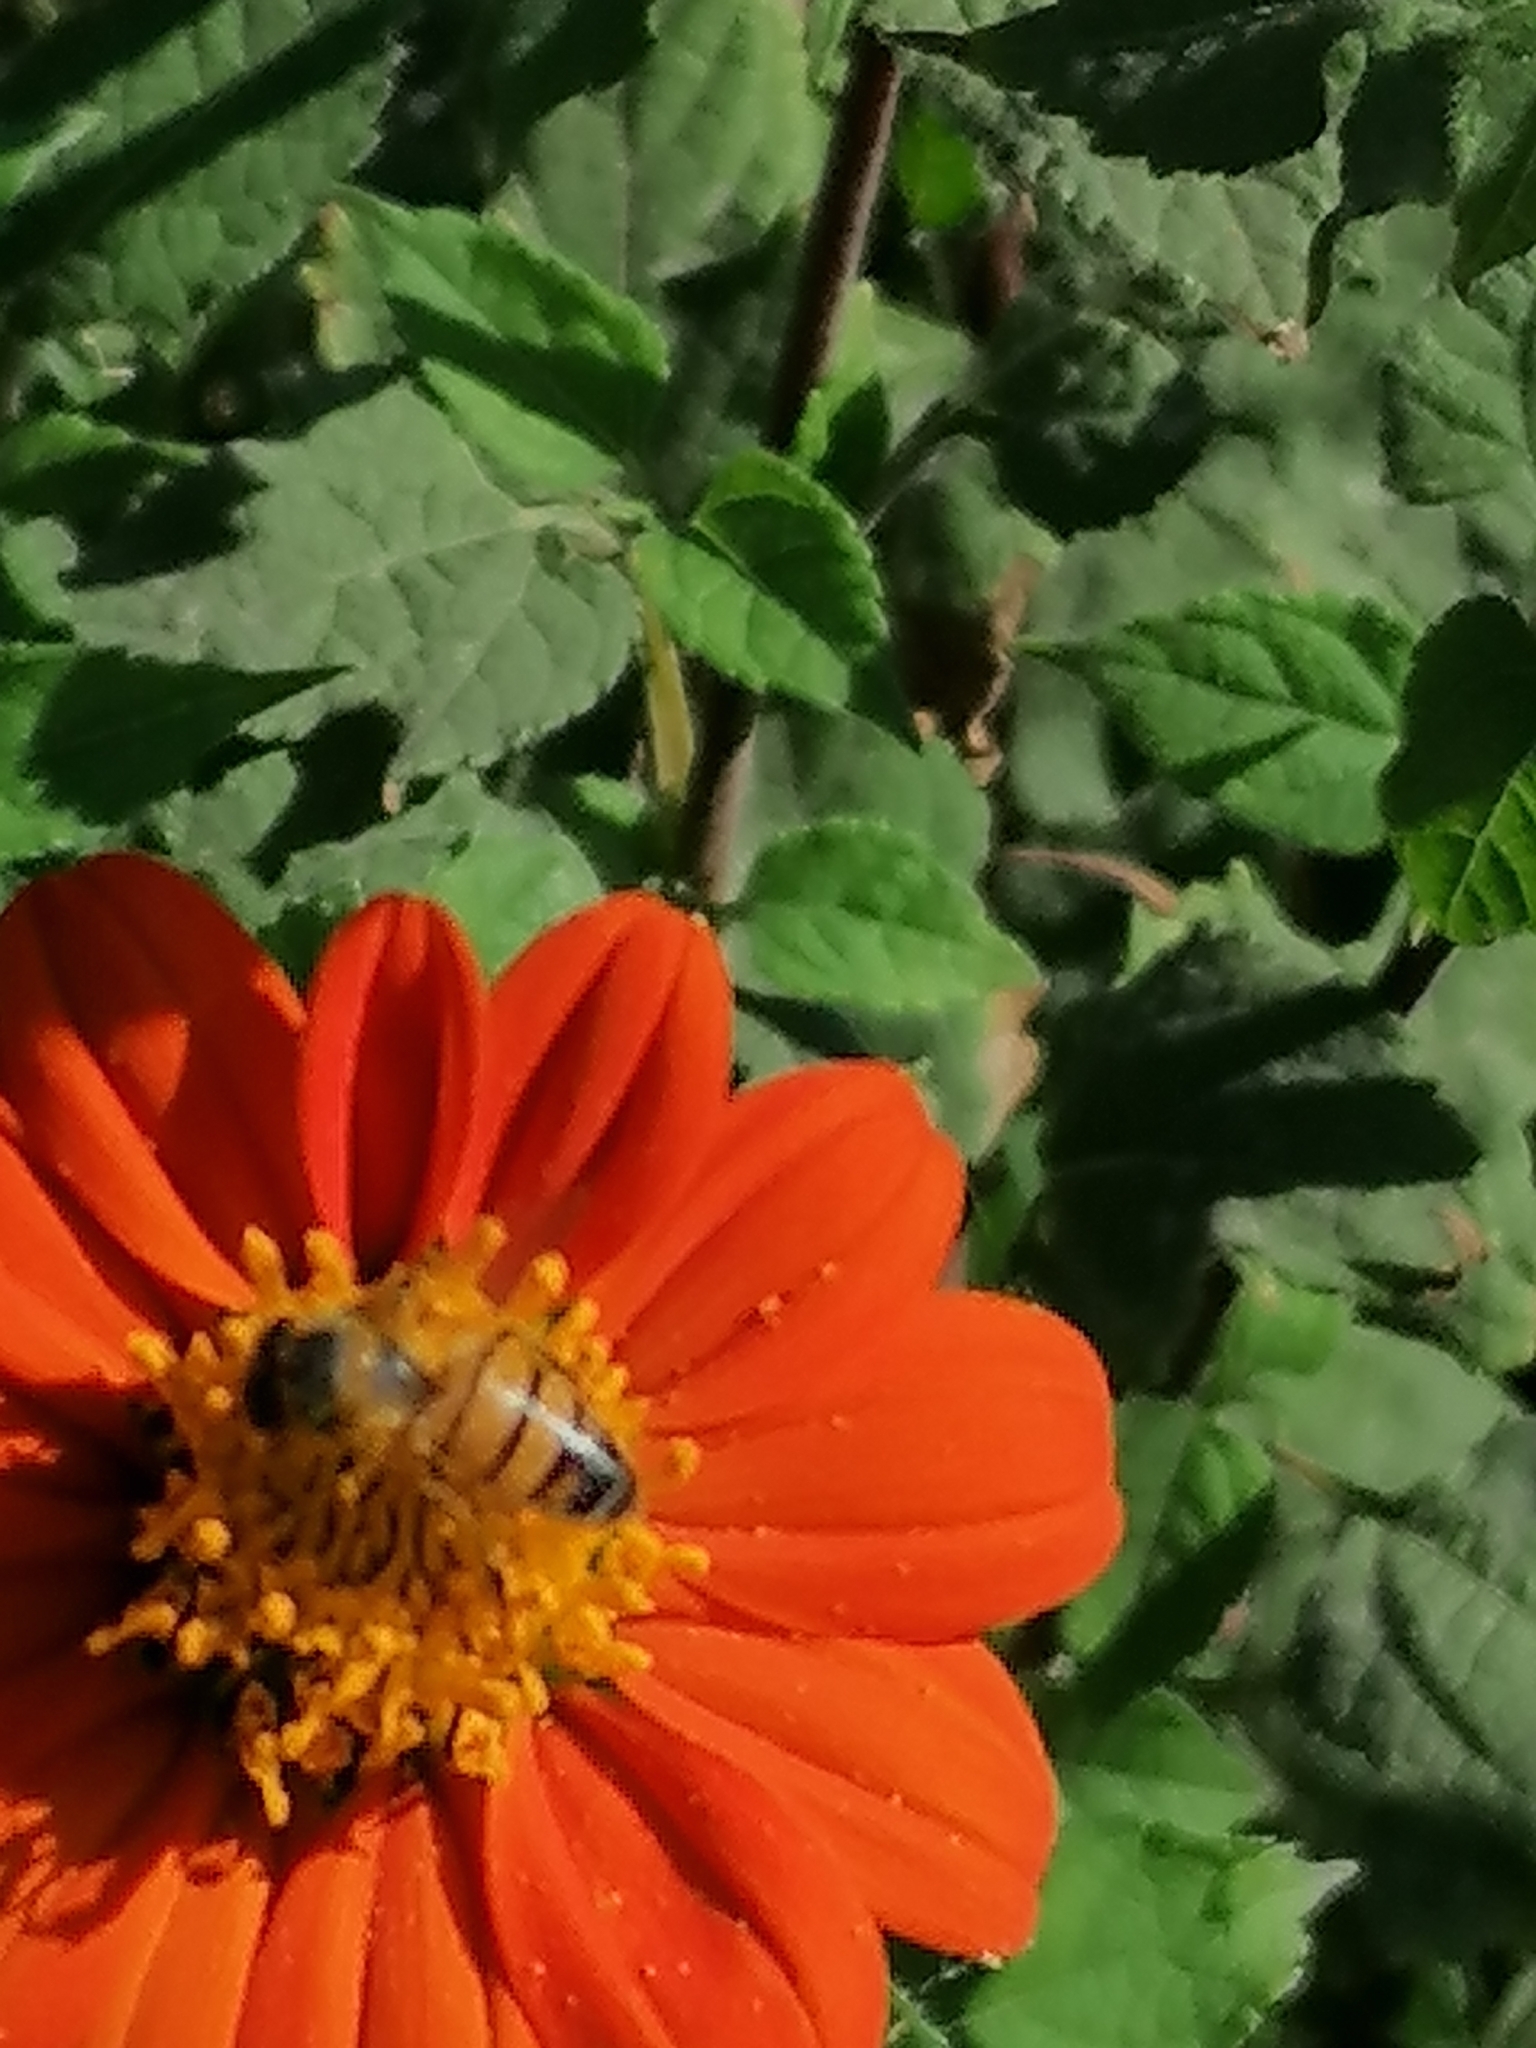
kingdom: Animalia
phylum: Arthropoda
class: Insecta
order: Hymenoptera
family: Apidae
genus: Apis
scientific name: Apis mellifera
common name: Honey bee
